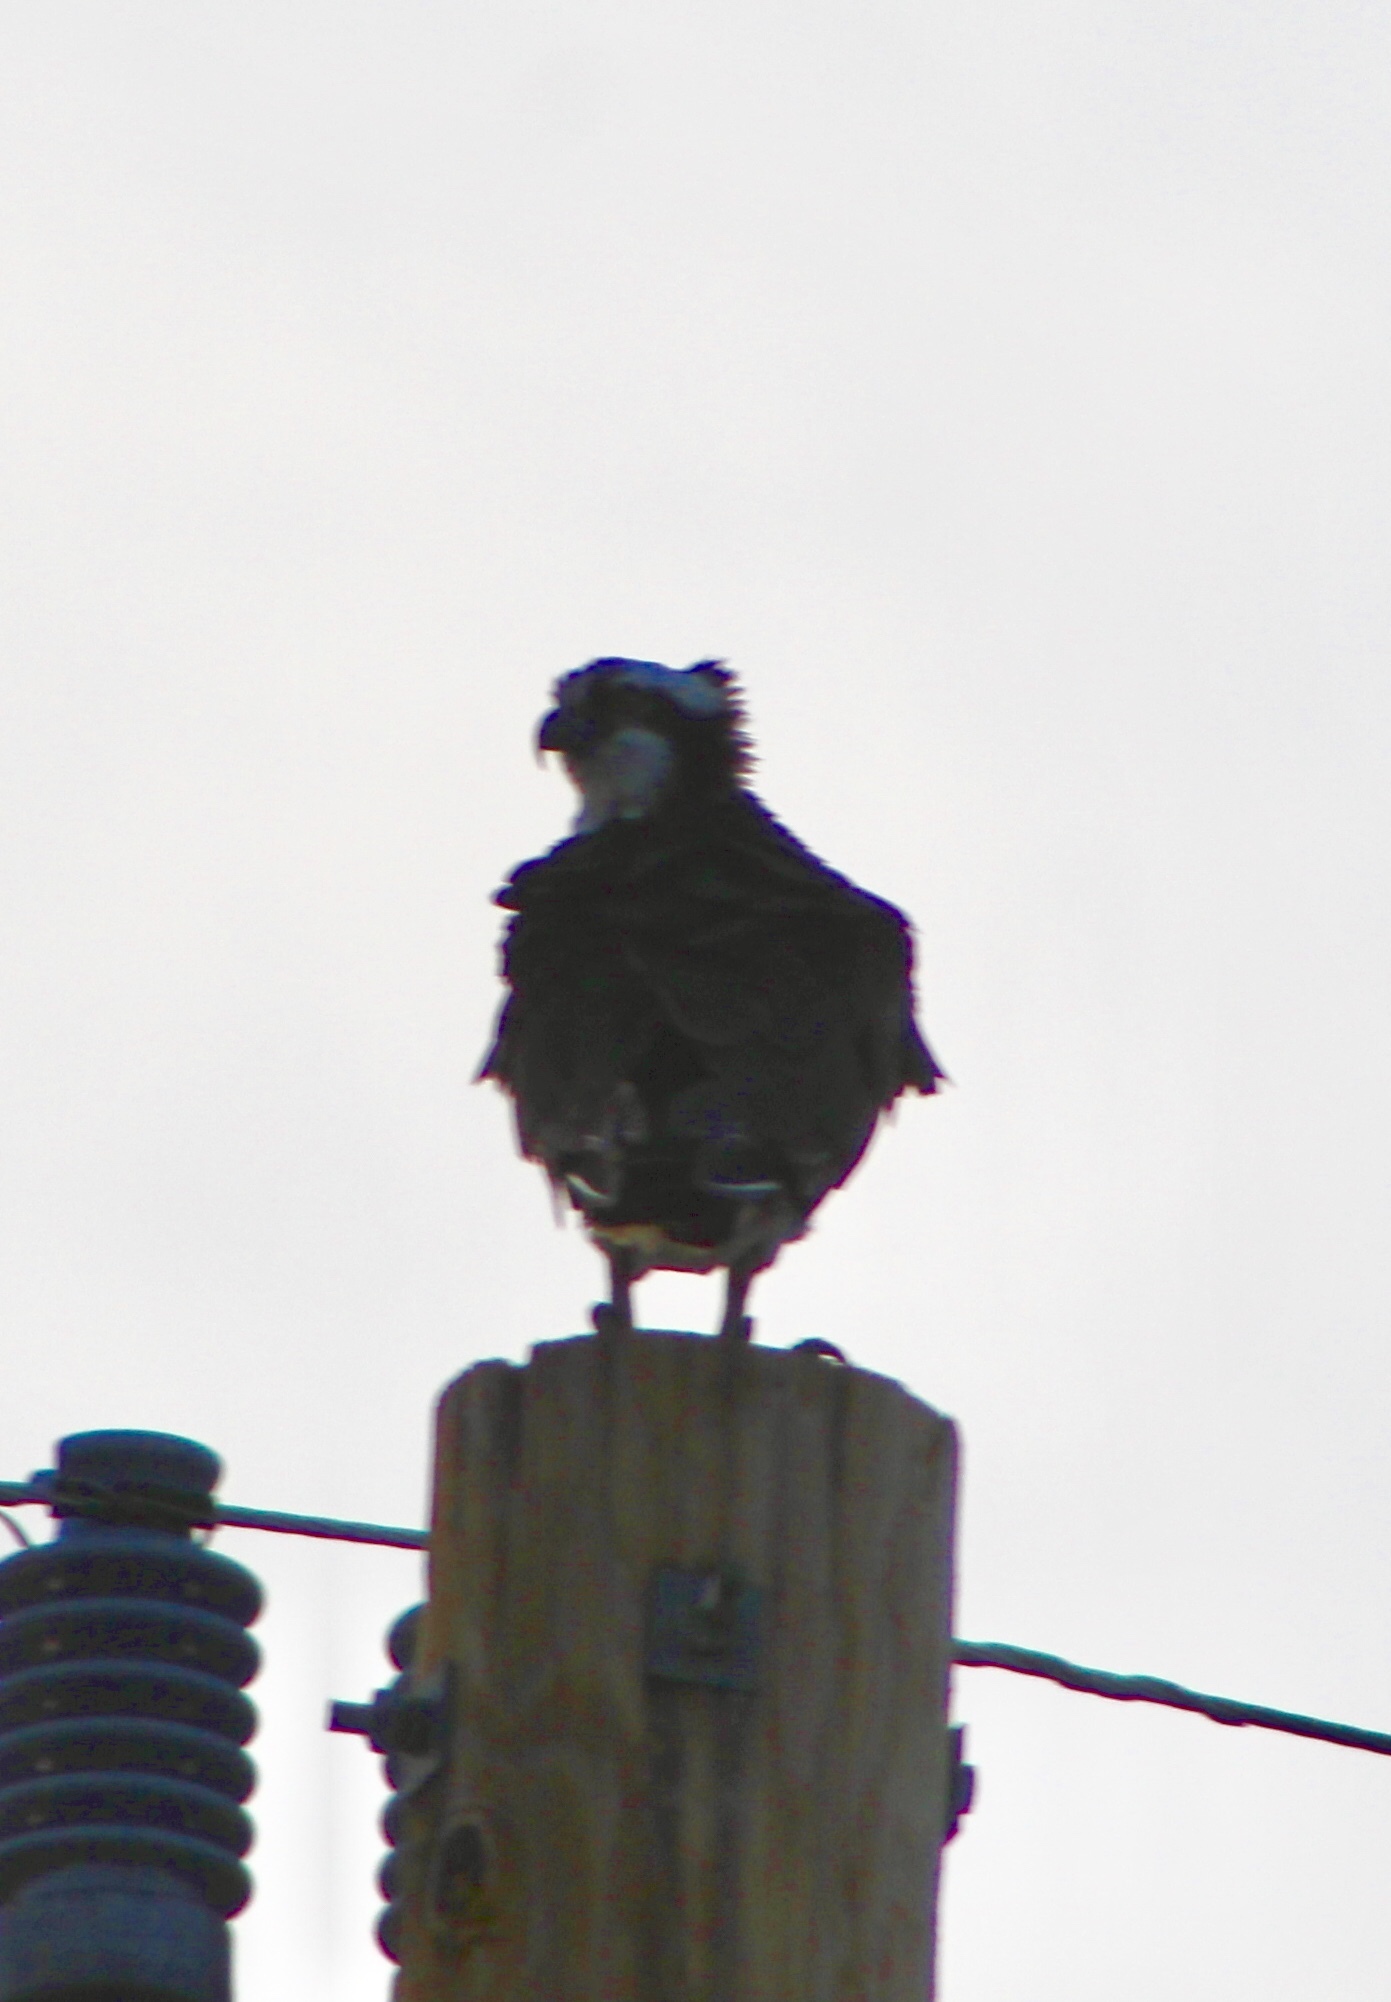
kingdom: Animalia
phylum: Chordata
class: Aves
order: Accipitriformes
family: Pandionidae
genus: Pandion
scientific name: Pandion haliaetus
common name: Osprey
